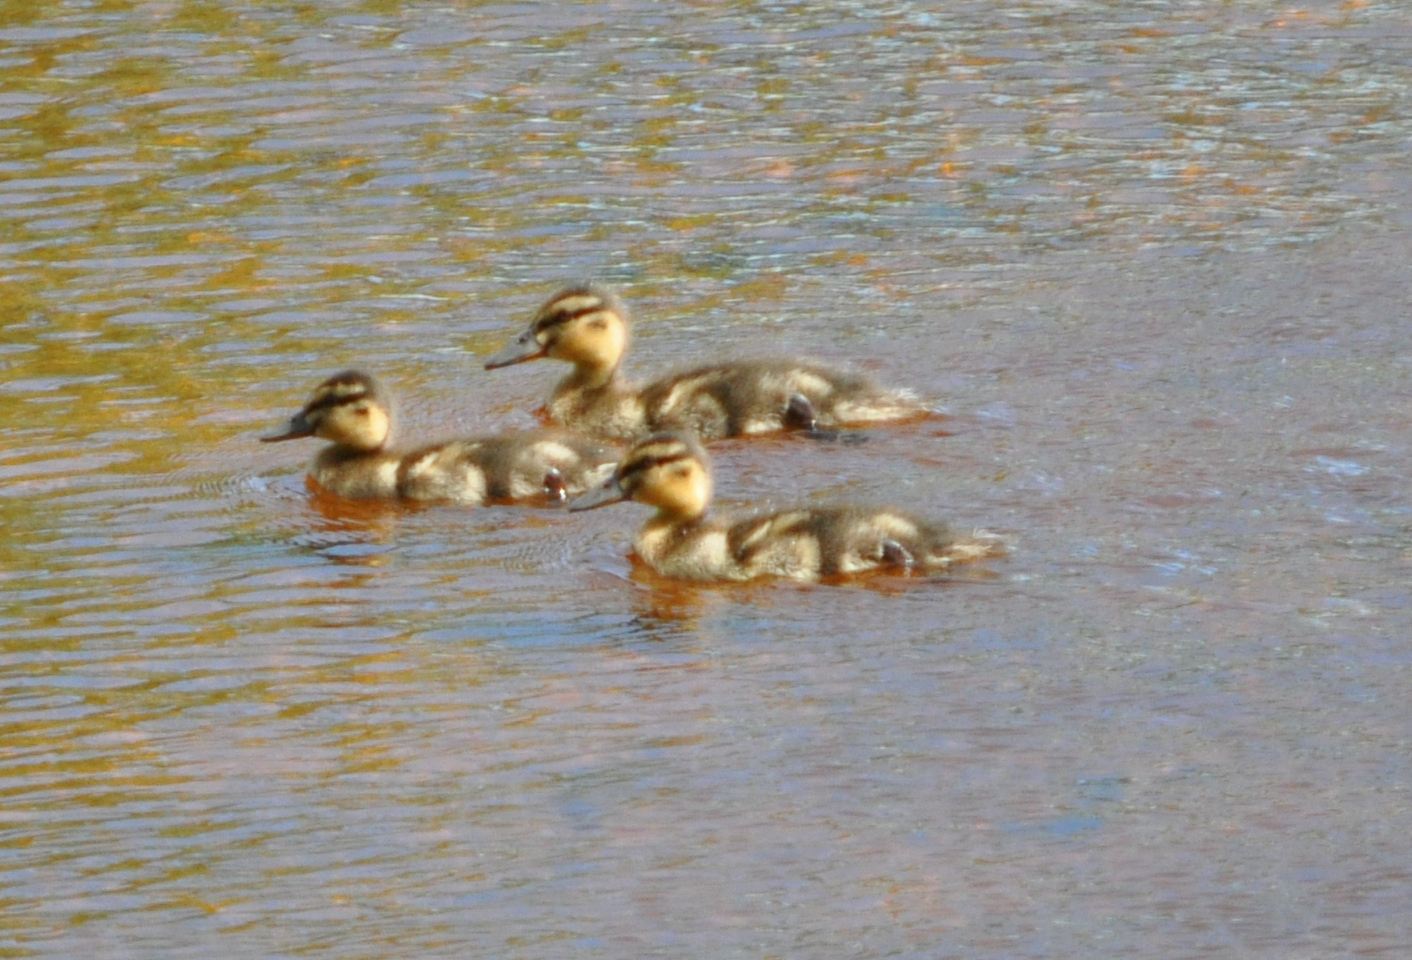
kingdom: Animalia
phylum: Chordata
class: Aves
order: Anseriformes
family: Anatidae
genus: Anas
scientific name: Anas platyrhynchos
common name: Mallard
